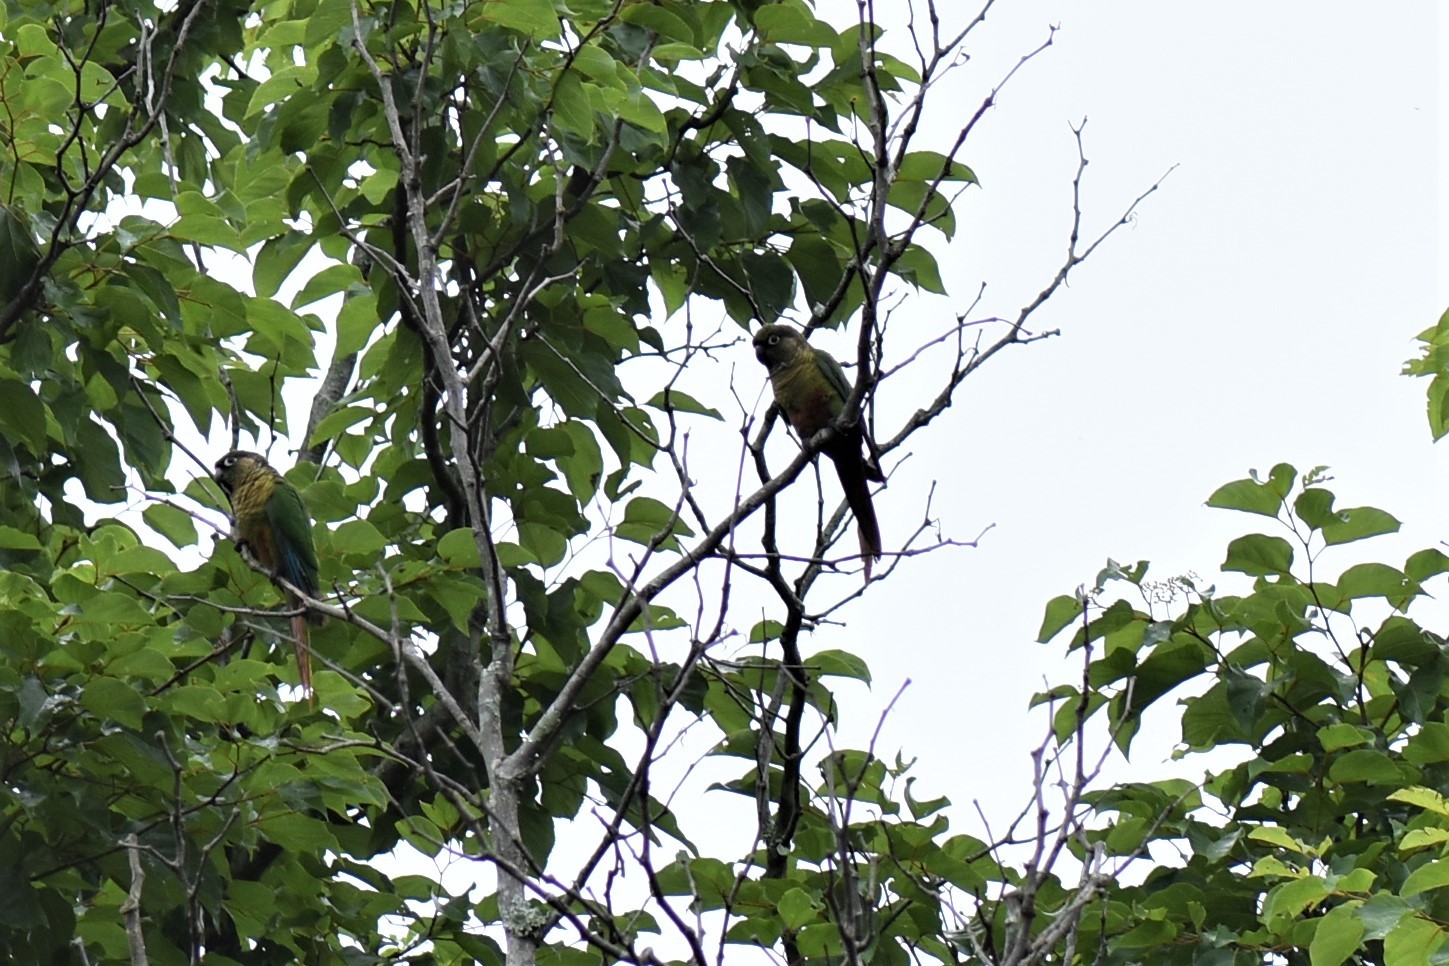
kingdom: Animalia
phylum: Chordata
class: Aves
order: Psittaciformes
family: Psittacidae
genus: Pyrrhura
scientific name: Pyrrhura frontalis
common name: Maroon-bellied parakeet
